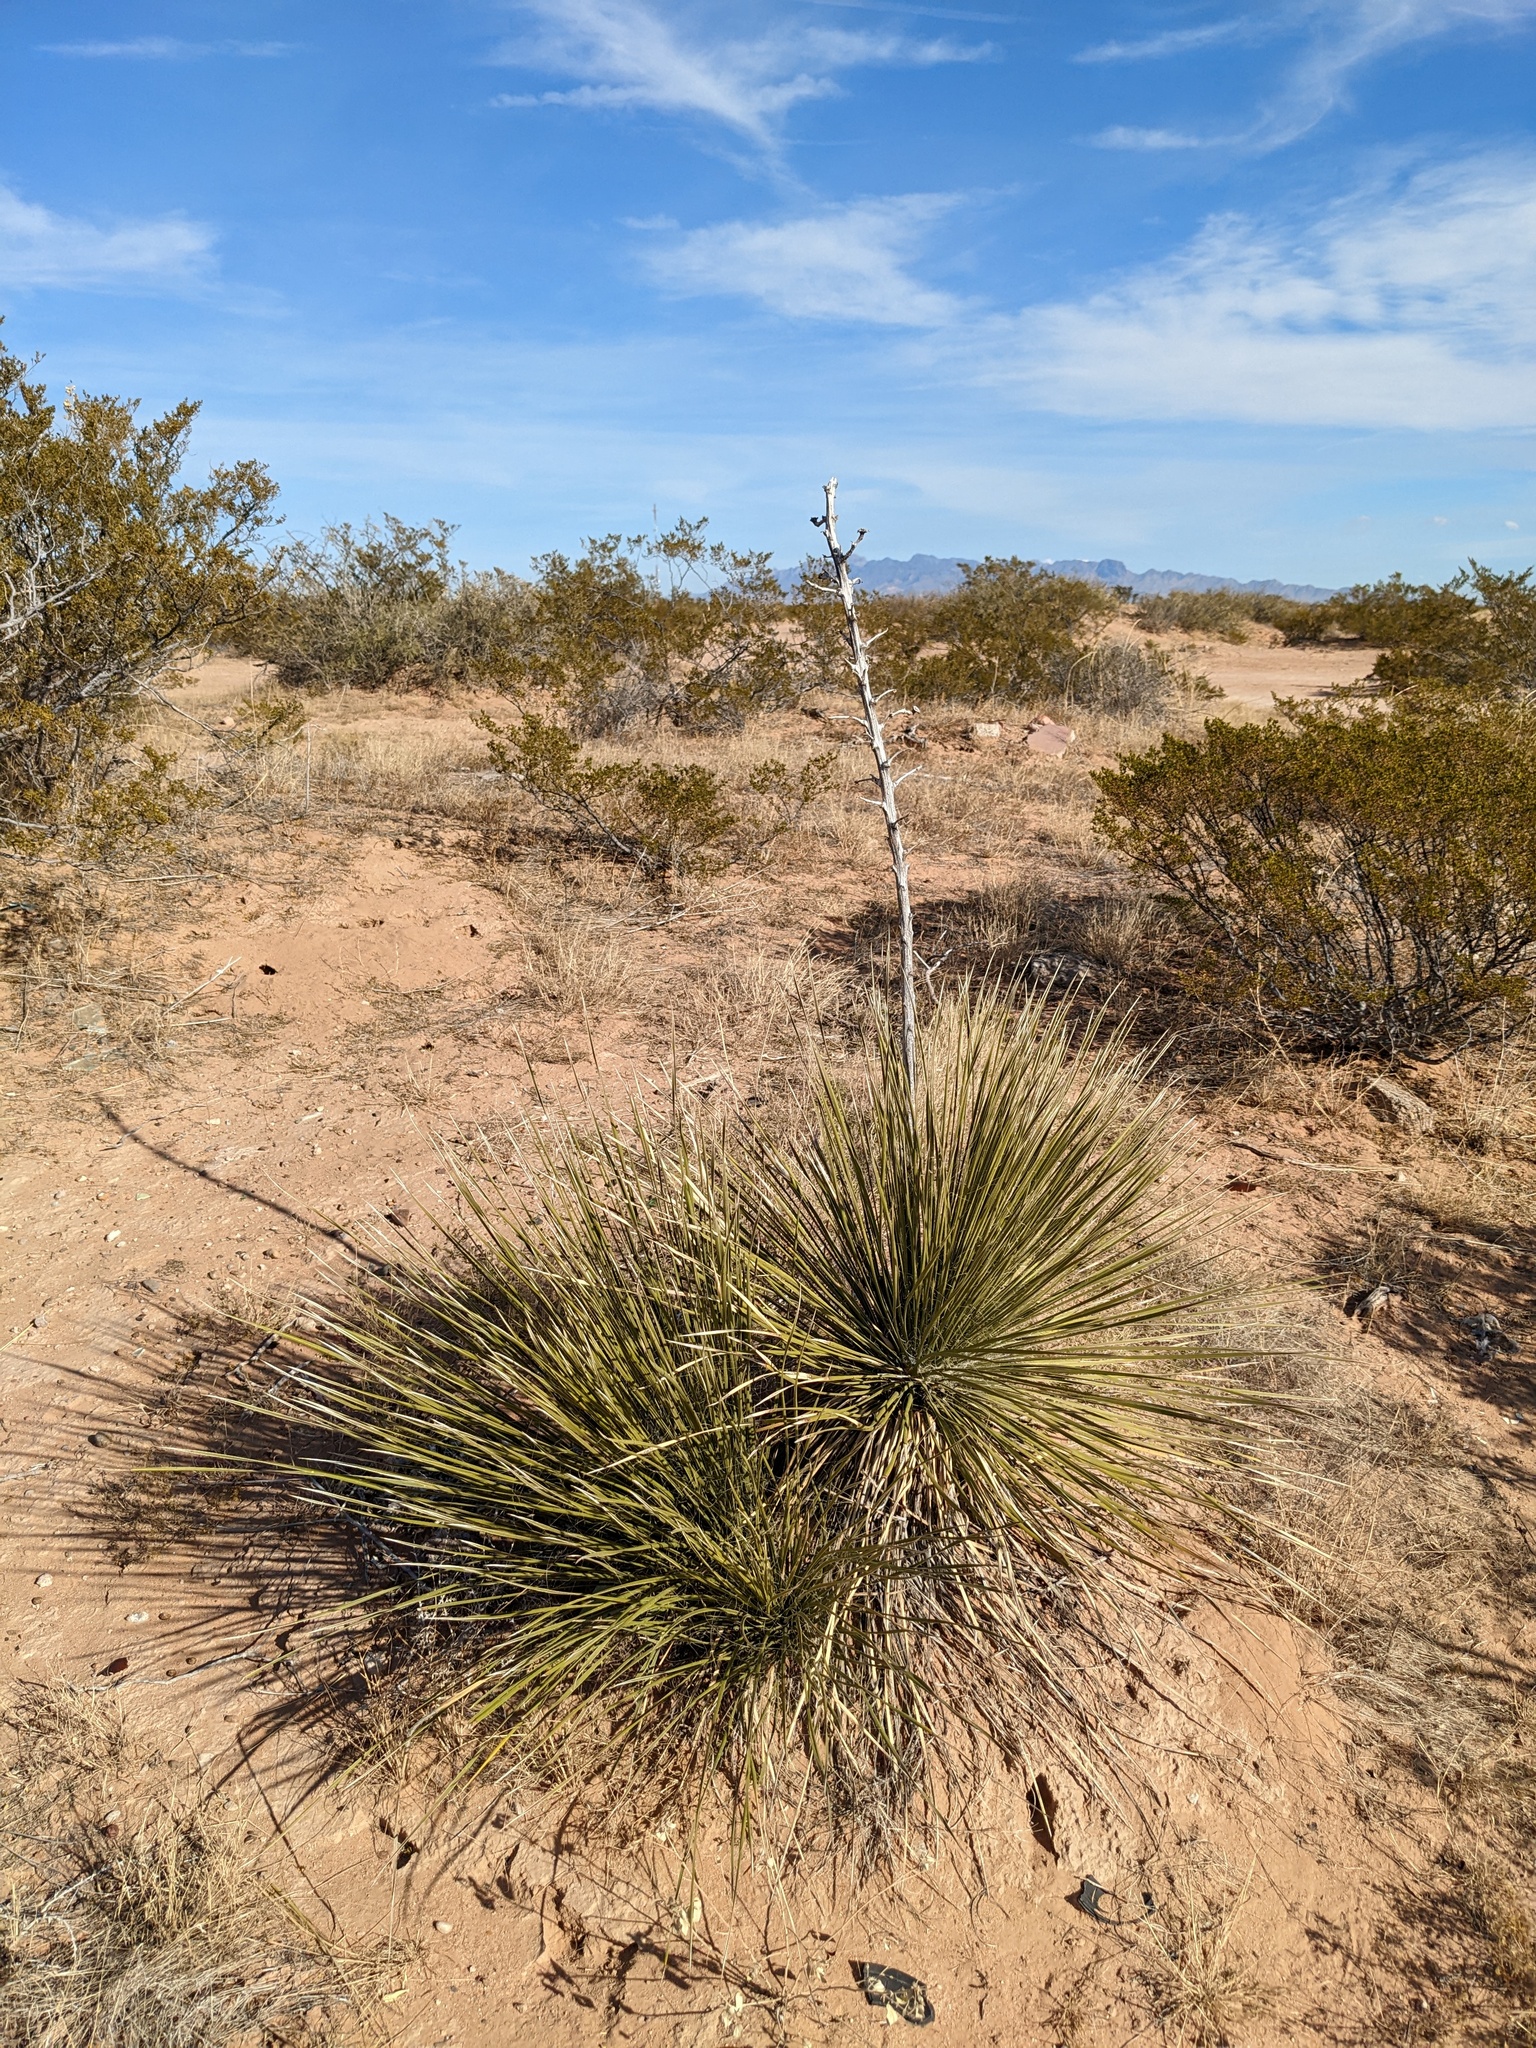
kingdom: Plantae
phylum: Tracheophyta
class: Liliopsida
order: Asparagales
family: Asparagaceae
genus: Yucca
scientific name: Yucca elata
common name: Palmella
